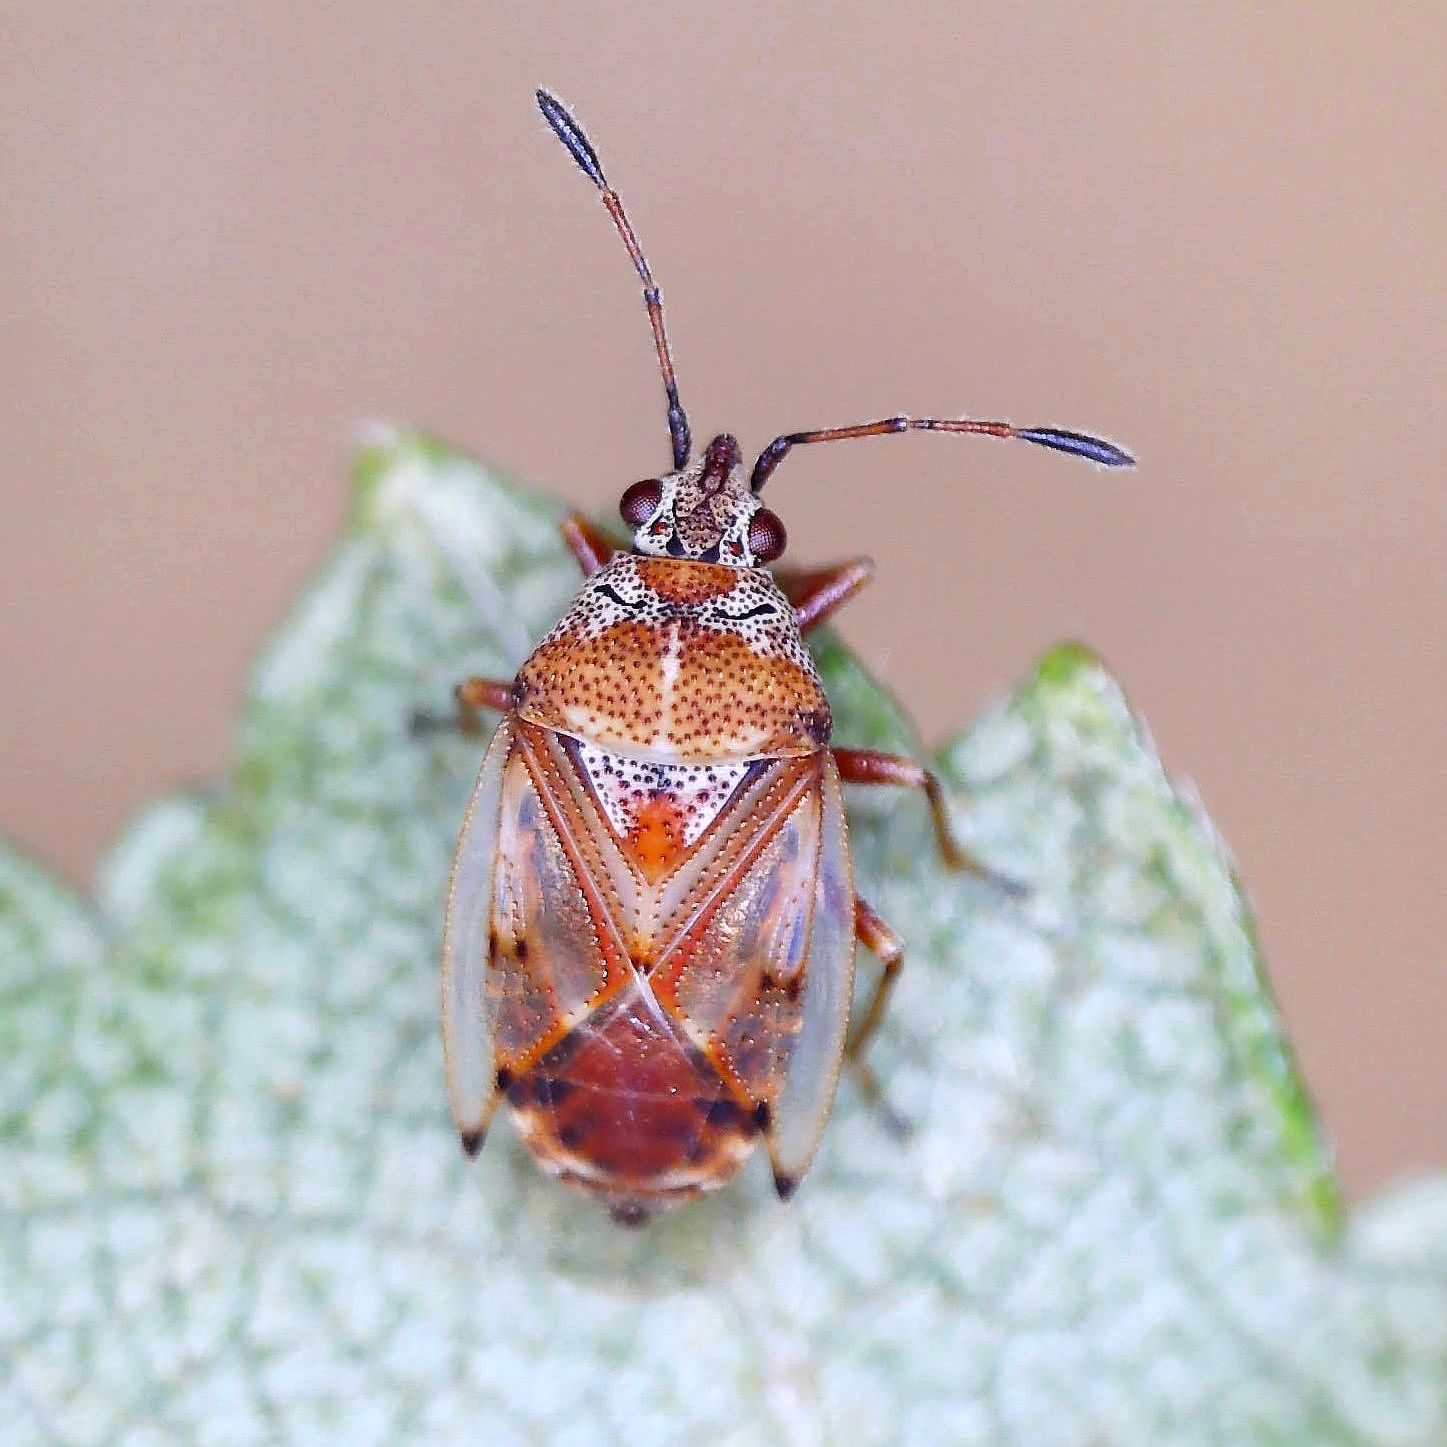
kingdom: Animalia
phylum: Arthropoda
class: Insecta
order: Hemiptera
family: Lygaeidae
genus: Kleidocerys
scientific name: Kleidocerys ericae
